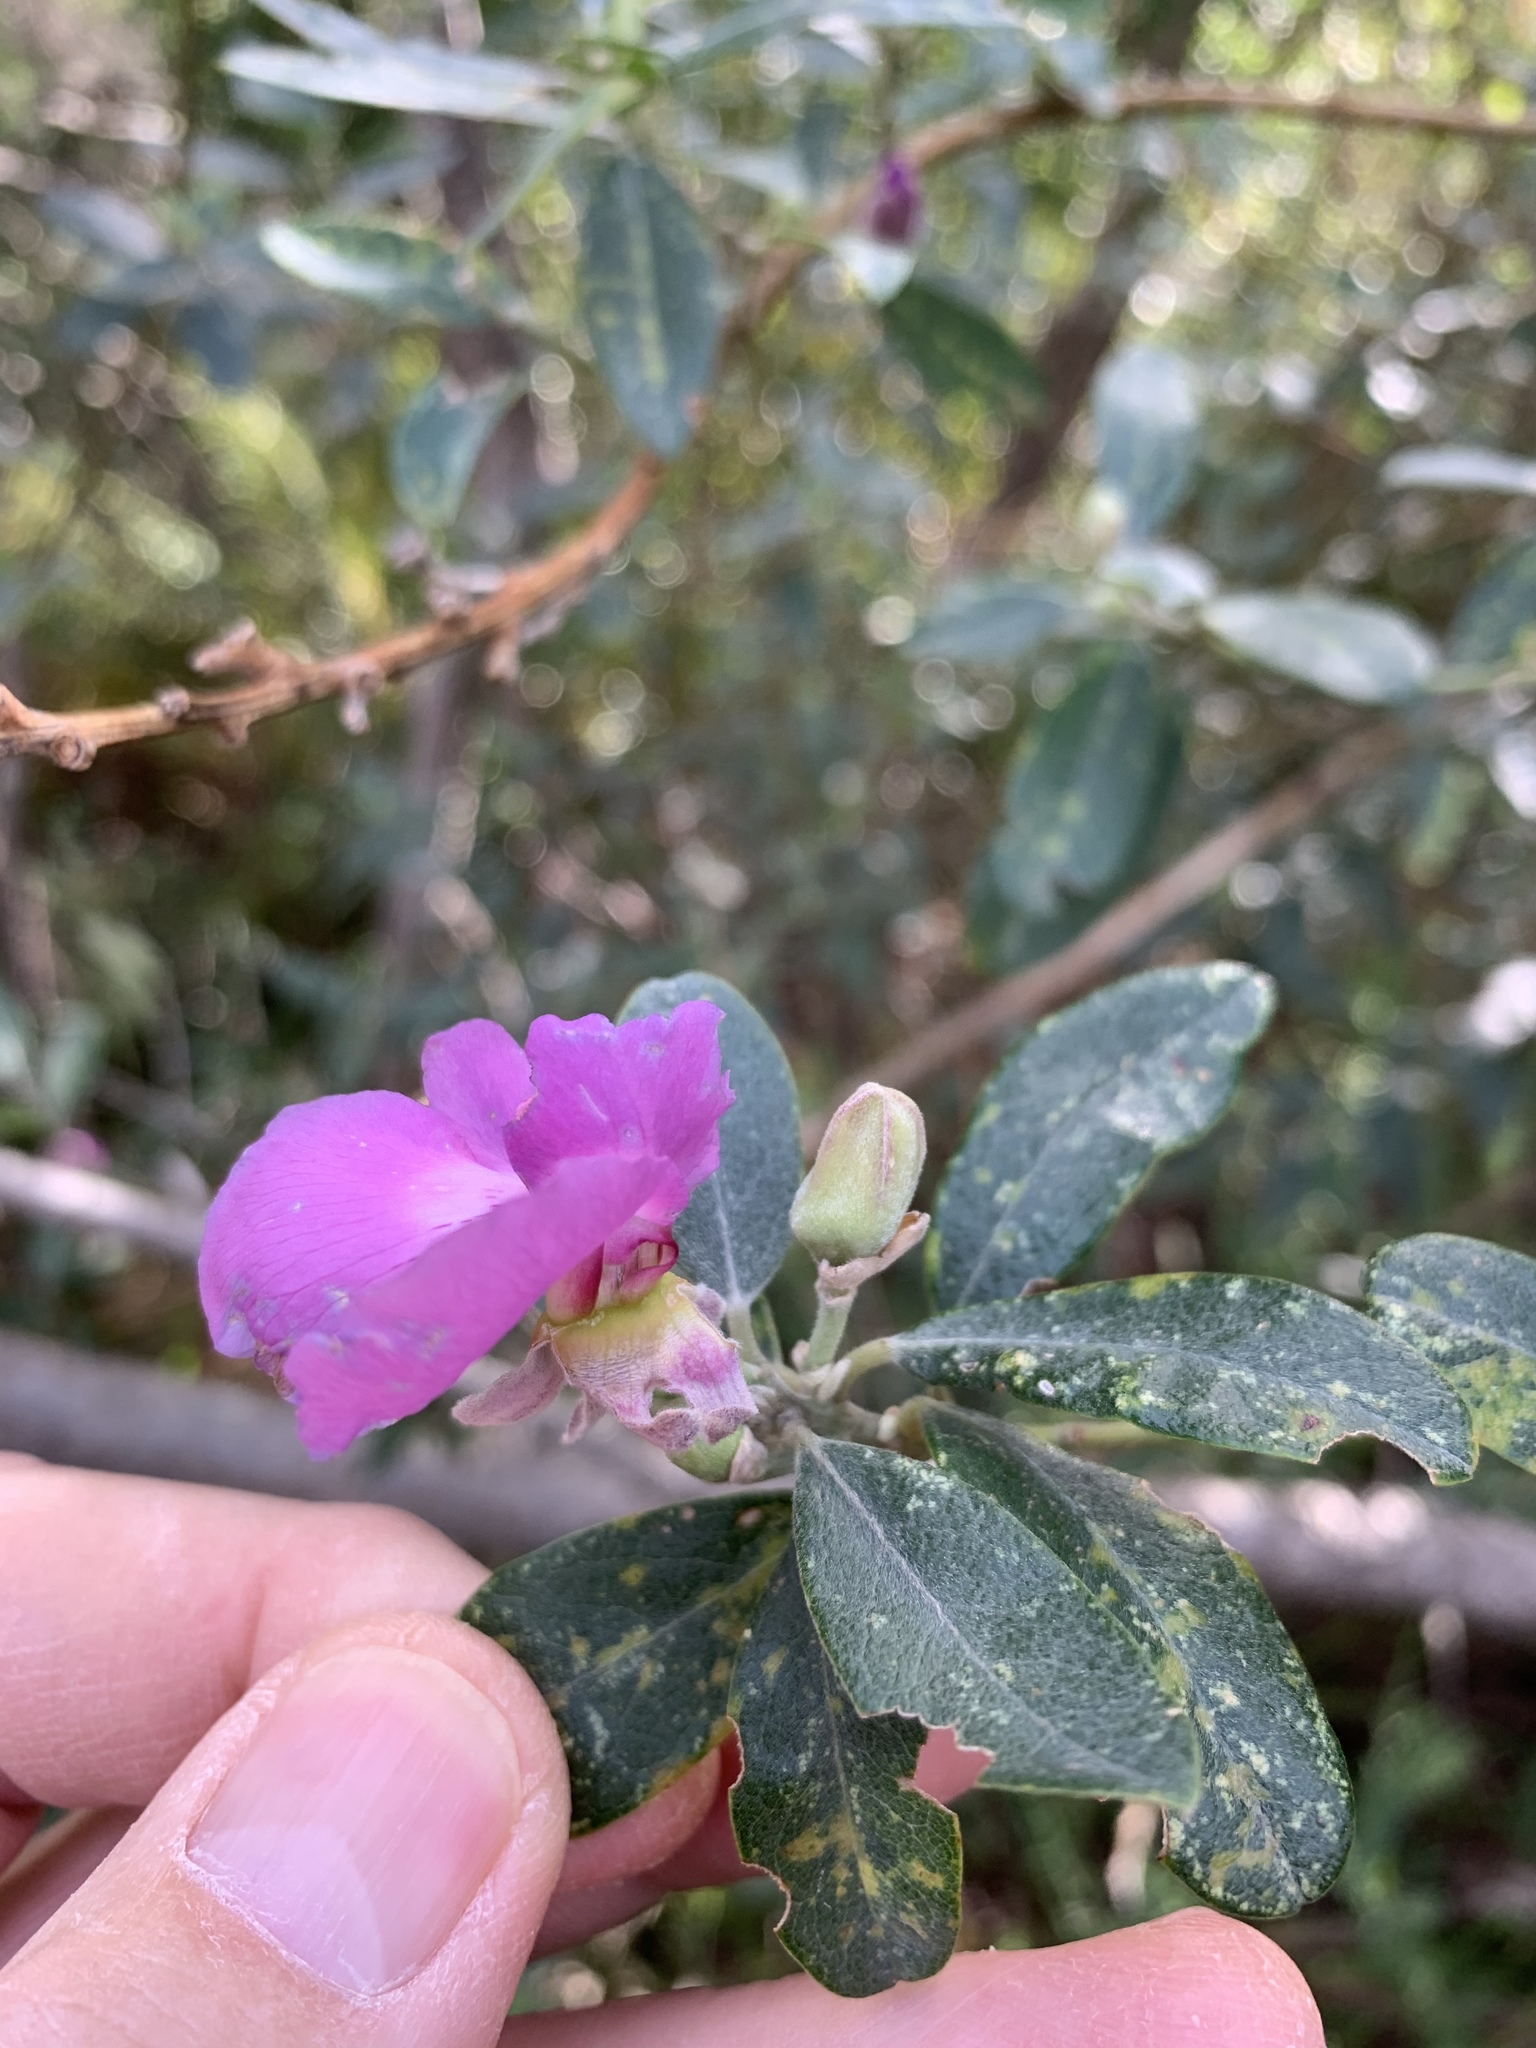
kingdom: Plantae
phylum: Tracheophyta
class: Magnoliopsida
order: Fabales
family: Fabaceae
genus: Podalyria
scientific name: Podalyria calyptrata
